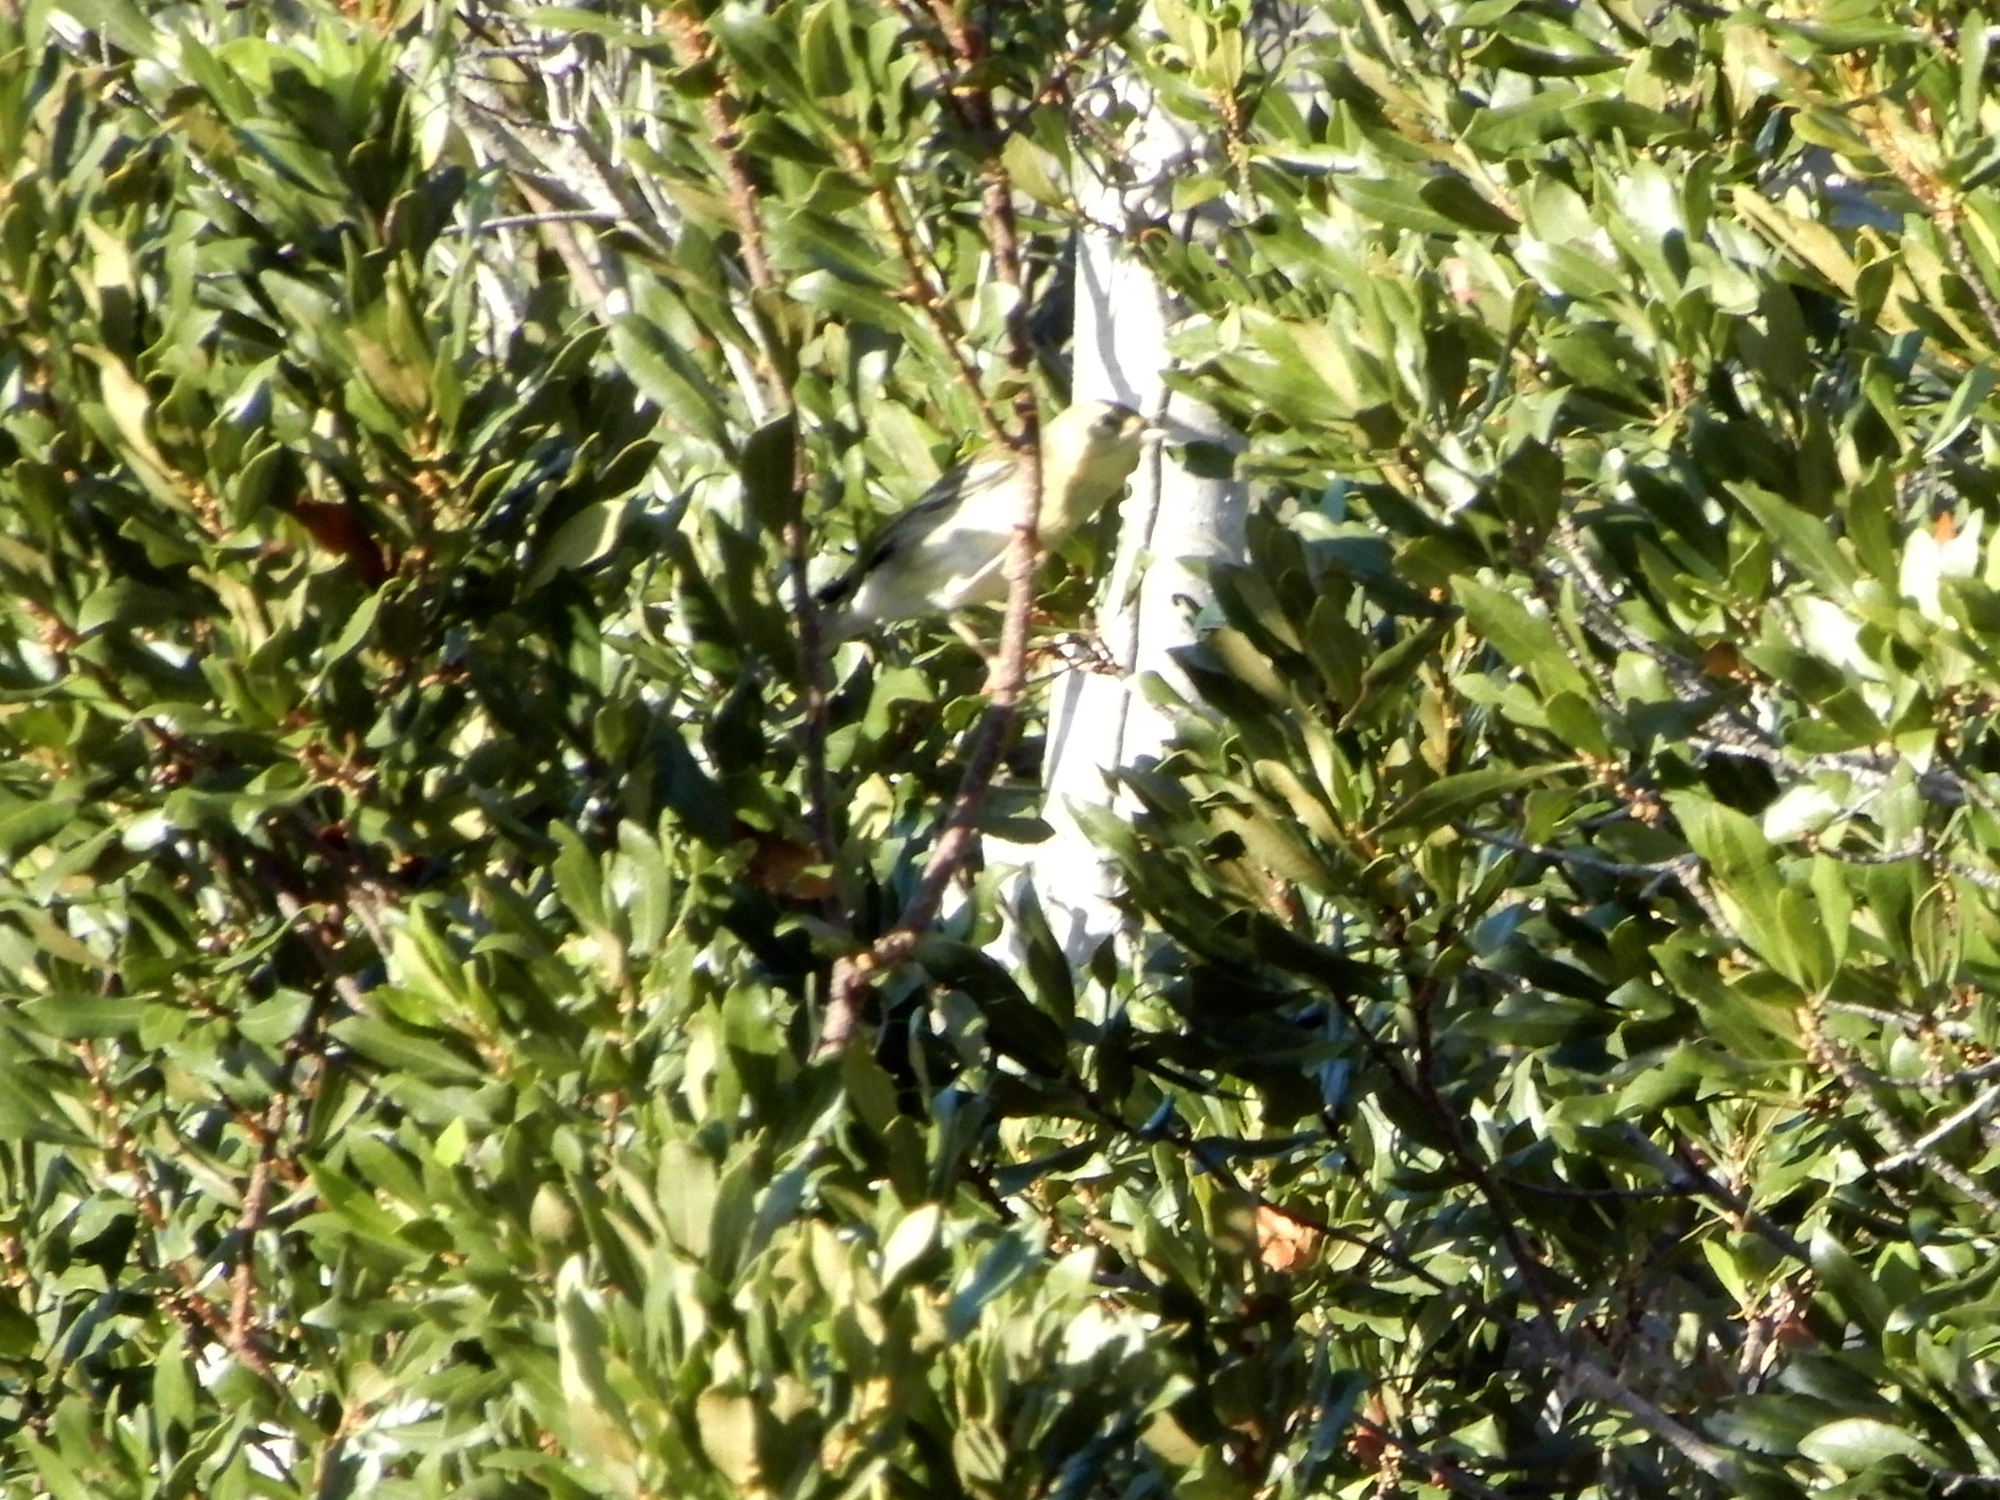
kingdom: Animalia
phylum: Chordata
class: Aves
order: Passeriformes
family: Parulidae
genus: Setophaga
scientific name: Setophaga striata
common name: Blackpoll warbler
